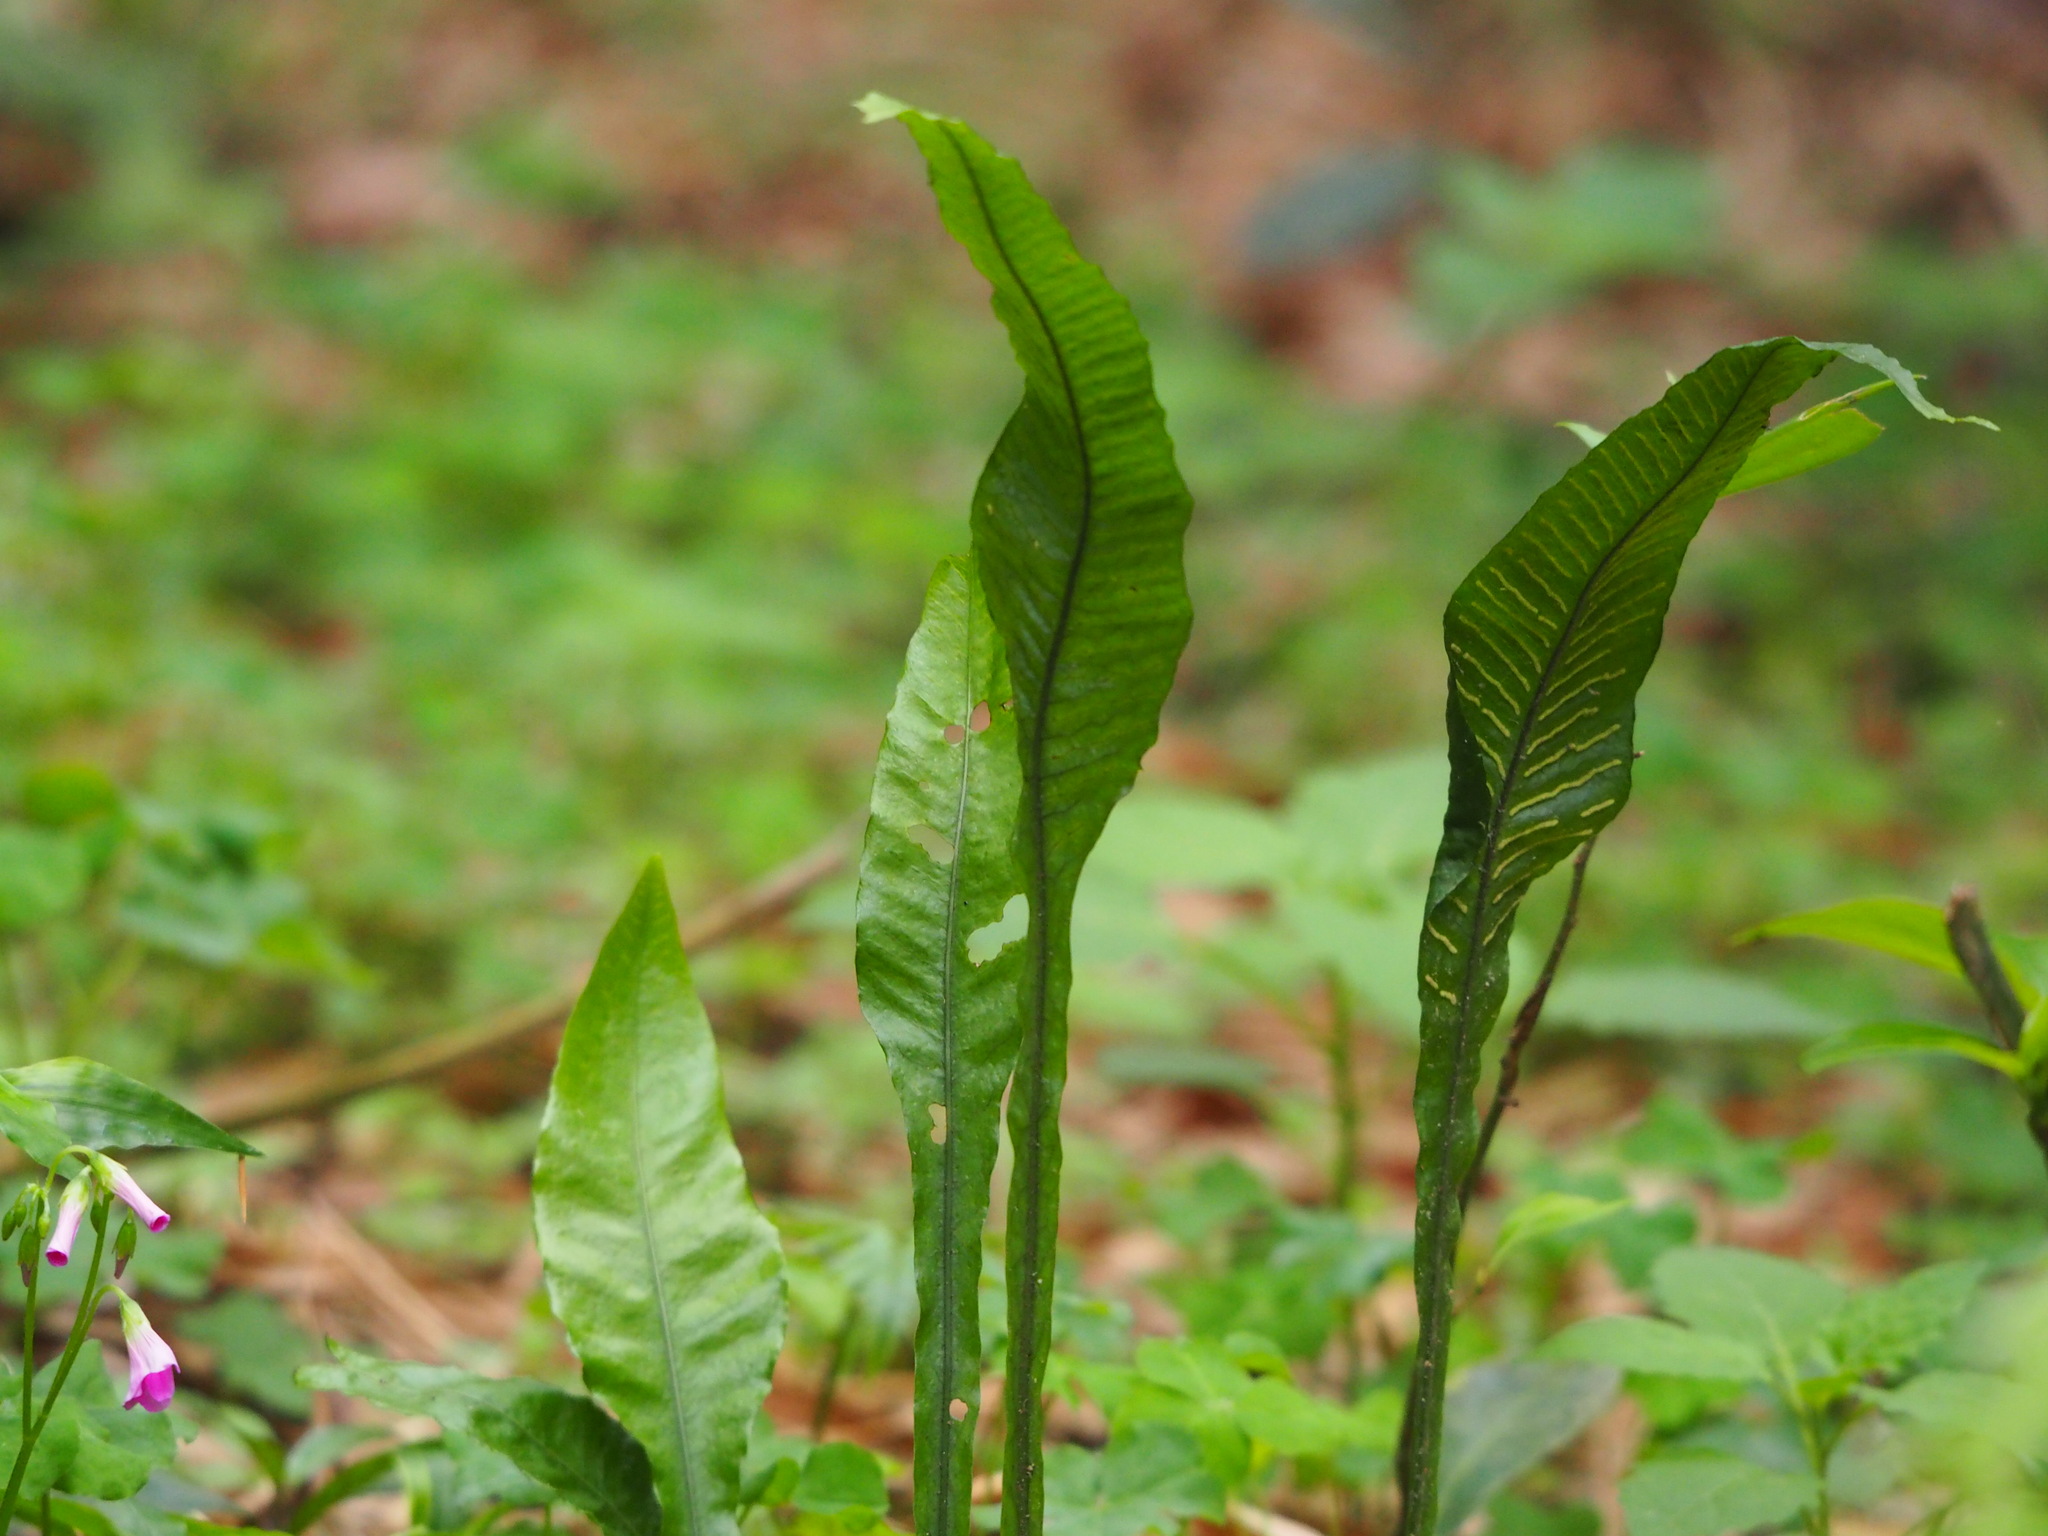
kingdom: Plantae
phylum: Tracheophyta
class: Polypodiopsida
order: Polypodiales
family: Polypodiaceae
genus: Leptochilus
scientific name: Leptochilus wrightii
